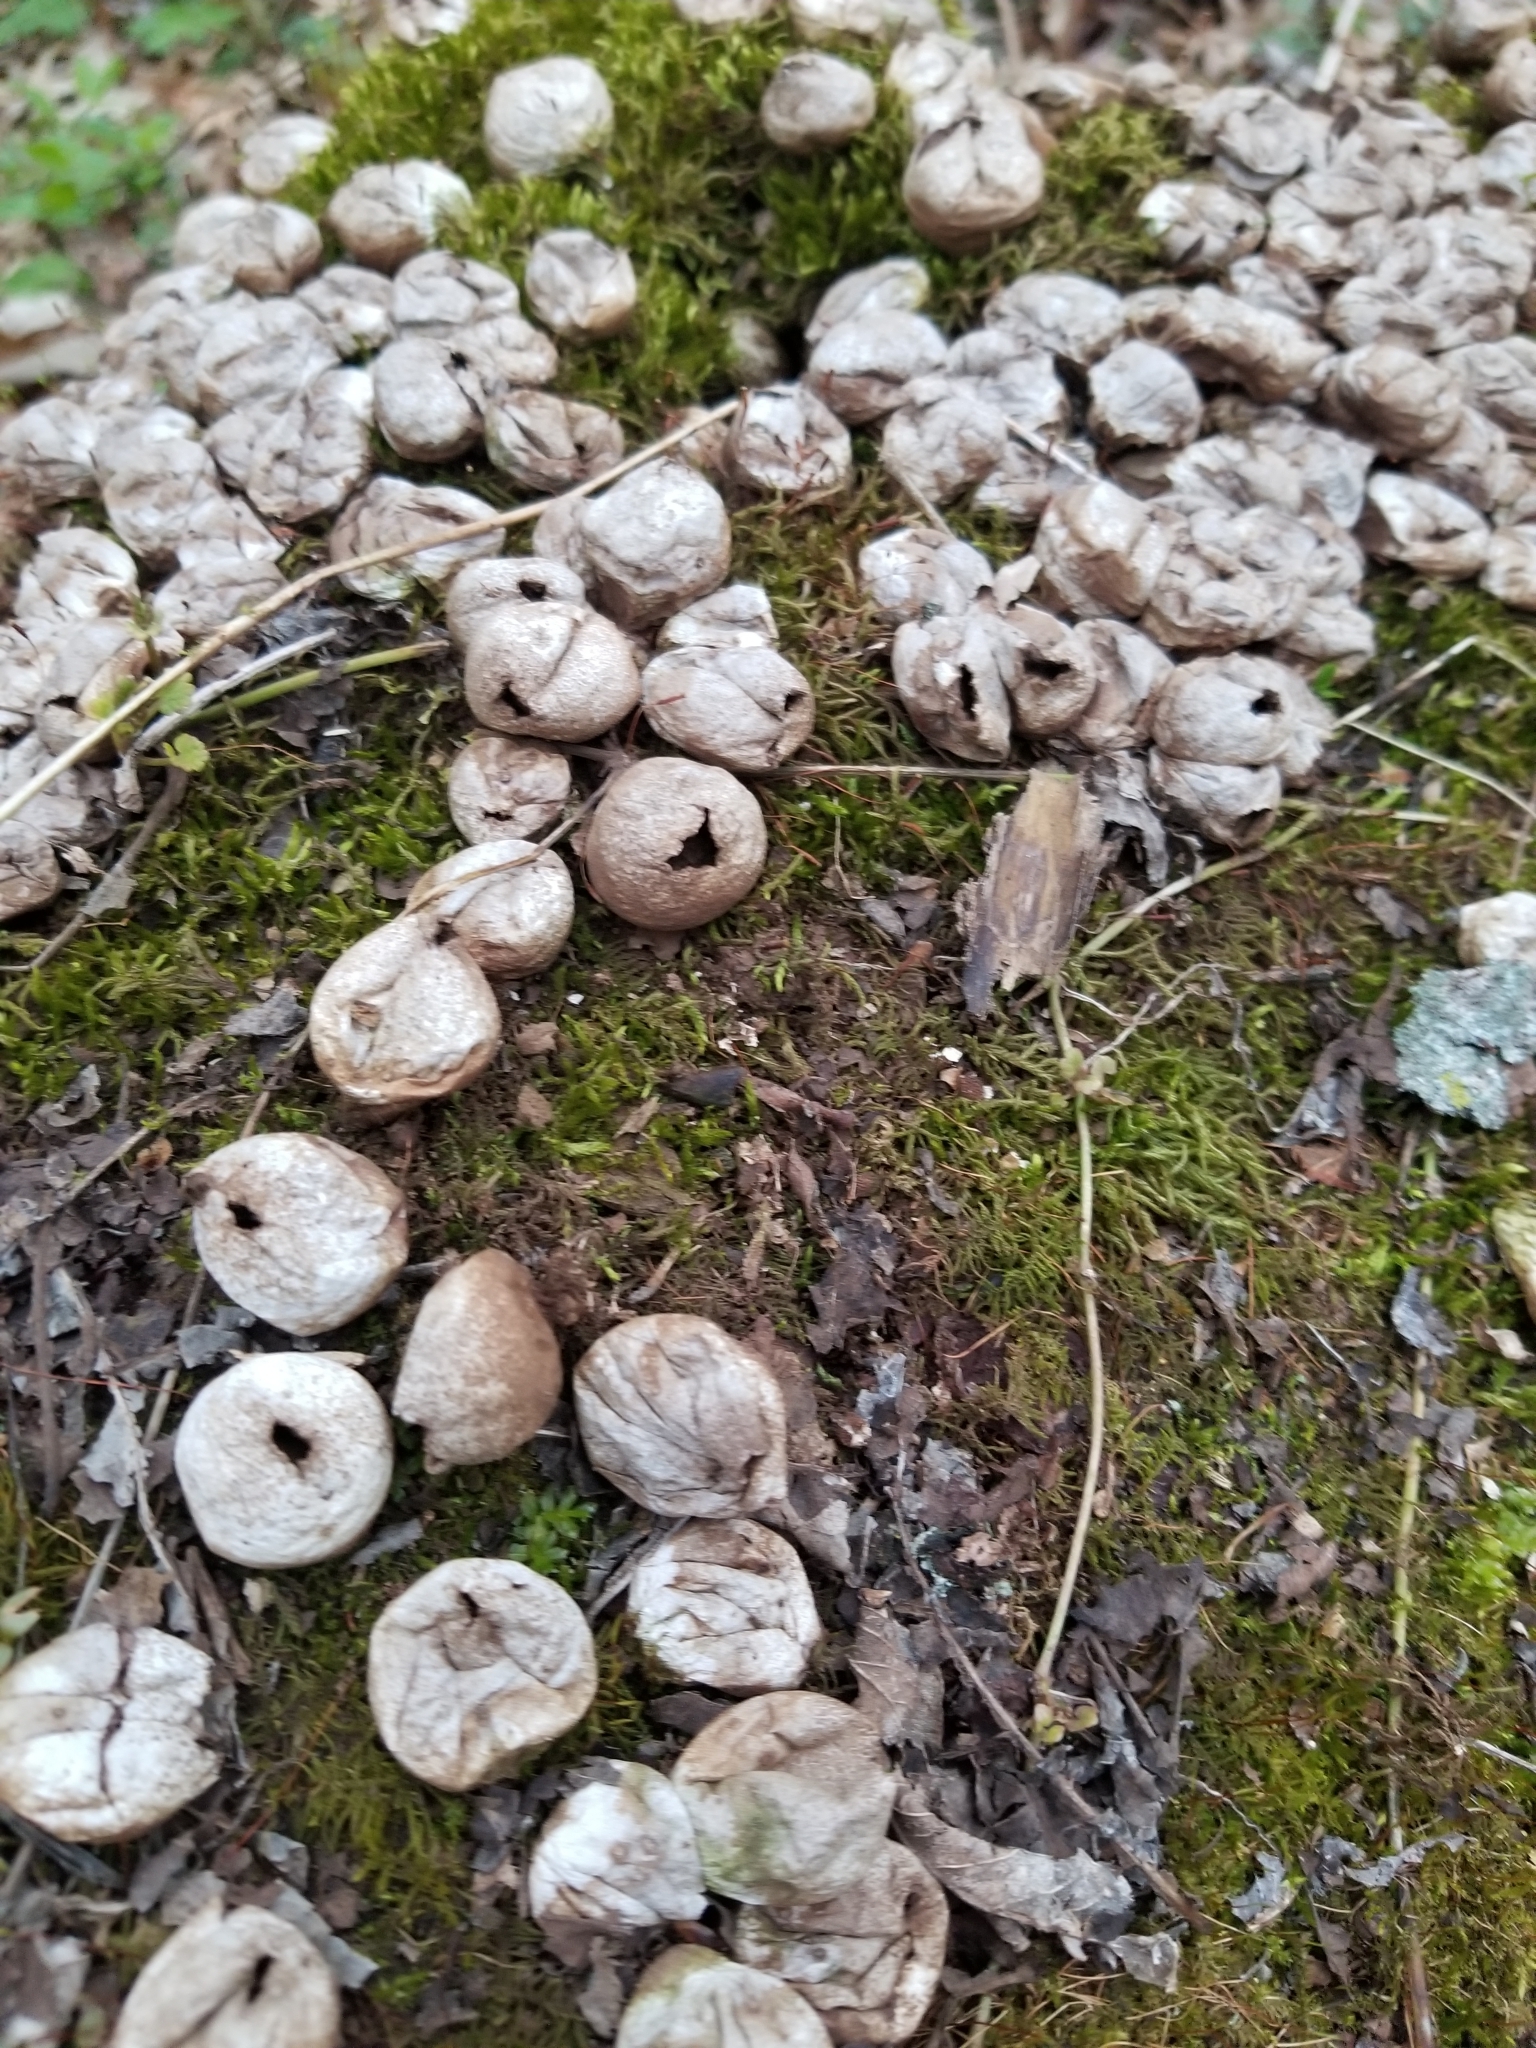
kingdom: Fungi
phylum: Basidiomycota
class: Agaricomycetes
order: Agaricales
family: Lycoperdaceae
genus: Apioperdon
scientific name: Apioperdon pyriforme
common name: Pear-shaped puffball
